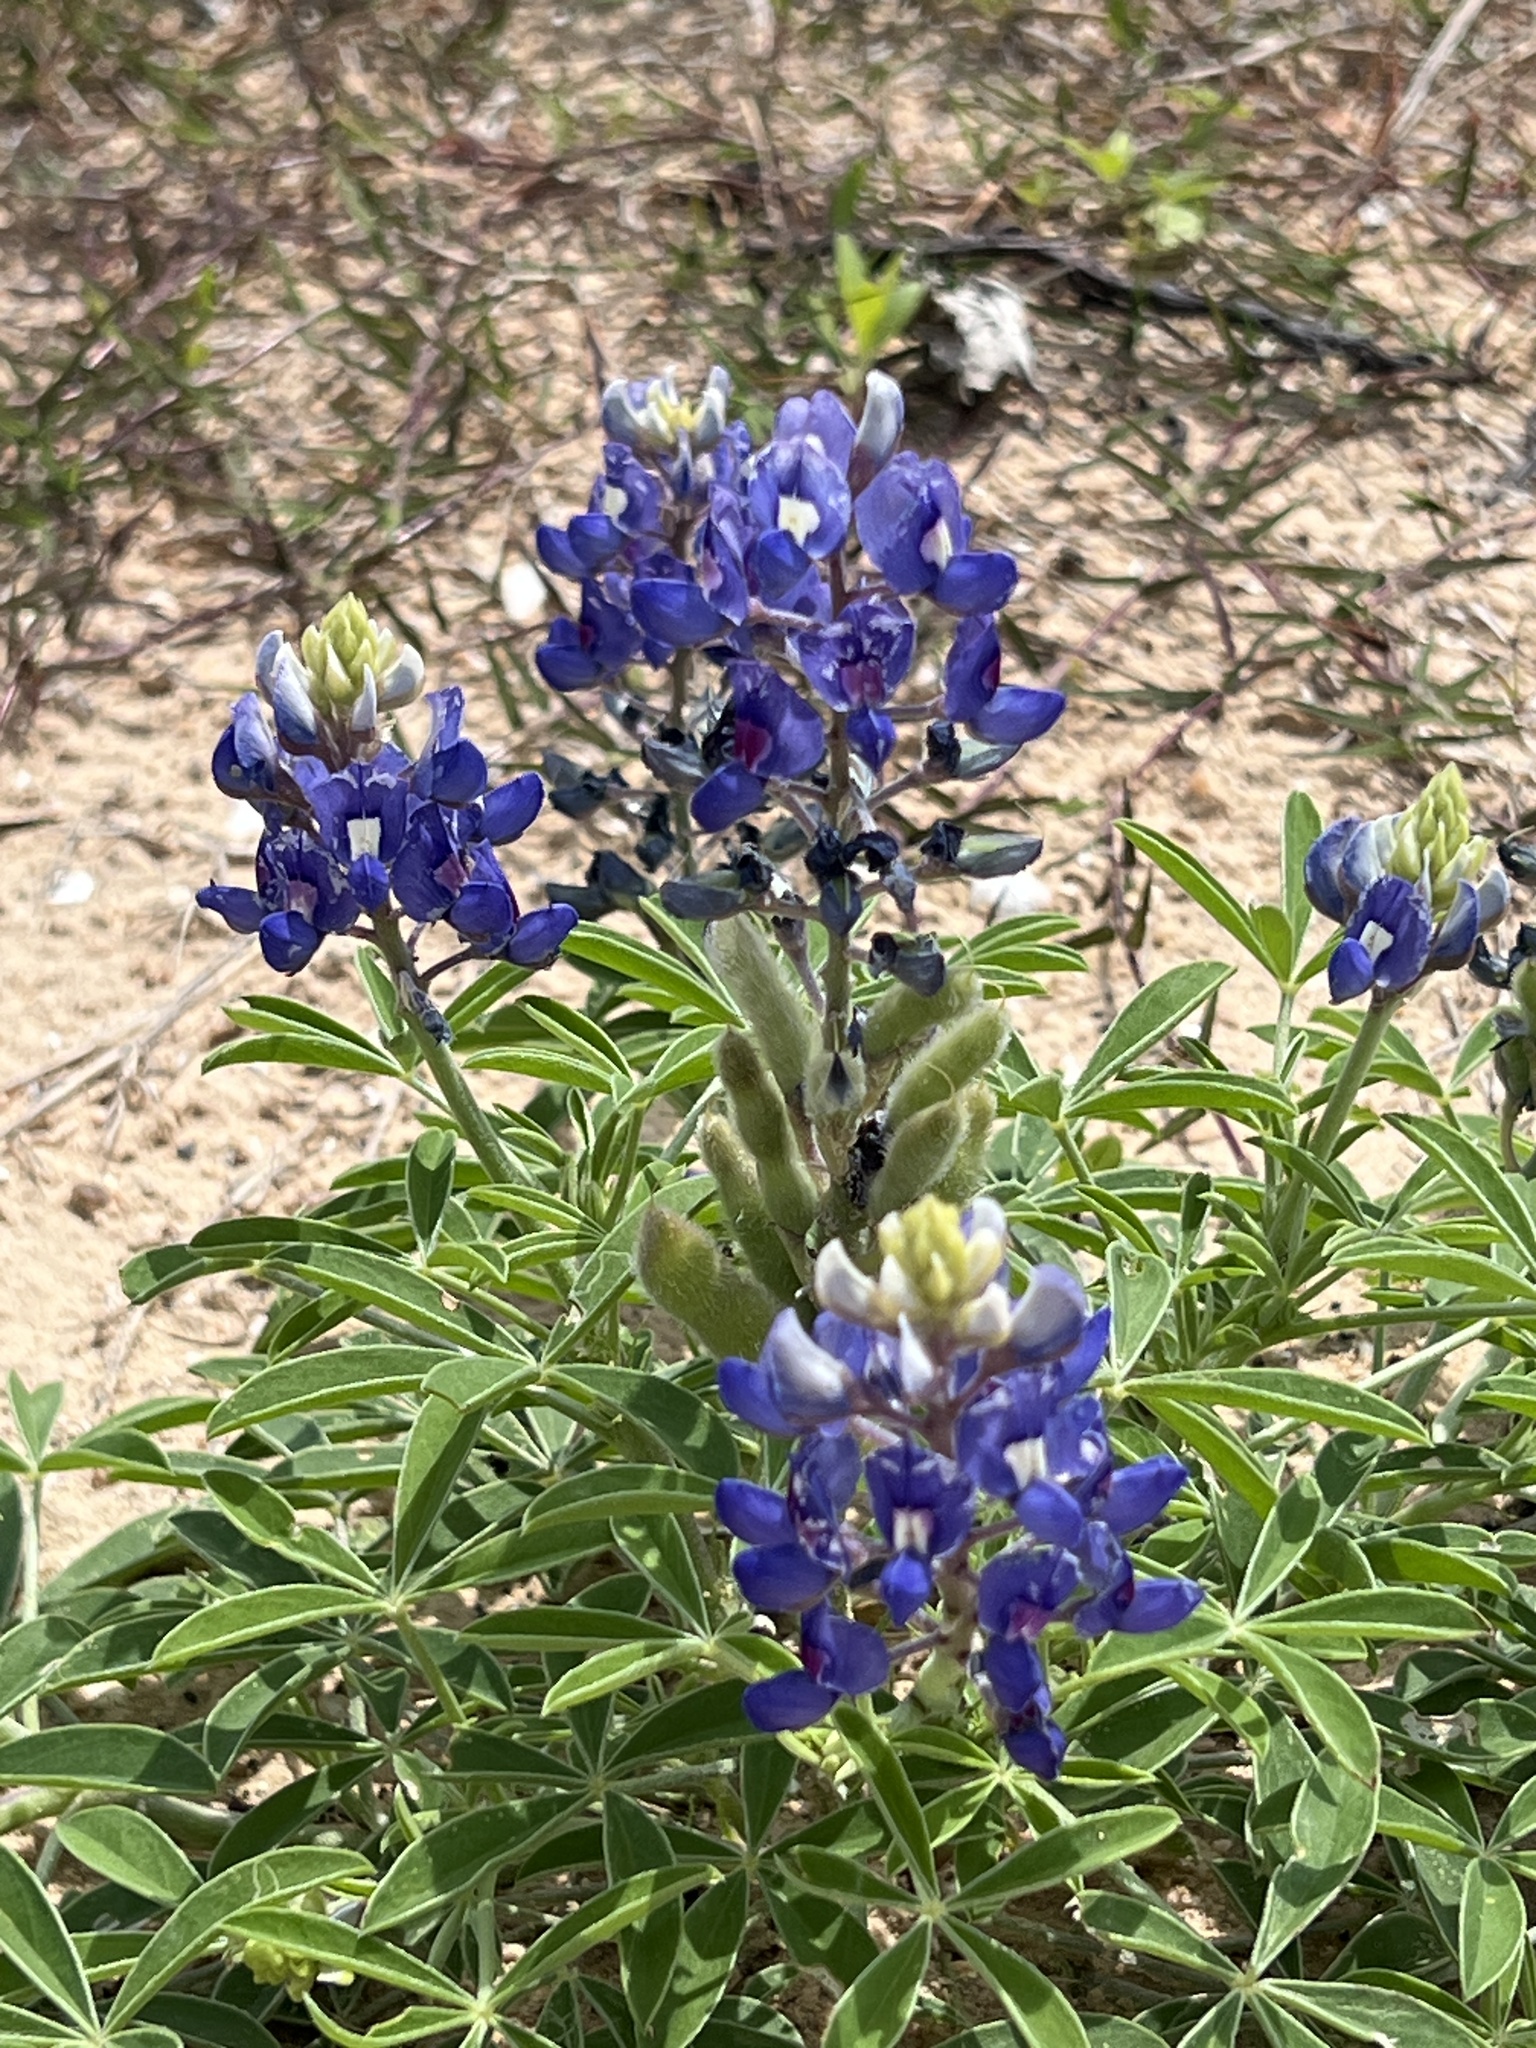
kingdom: Plantae
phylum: Tracheophyta
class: Magnoliopsida
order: Fabales
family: Fabaceae
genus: Lupinus
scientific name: Lupinus texensis
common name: Texas bluebonnet
